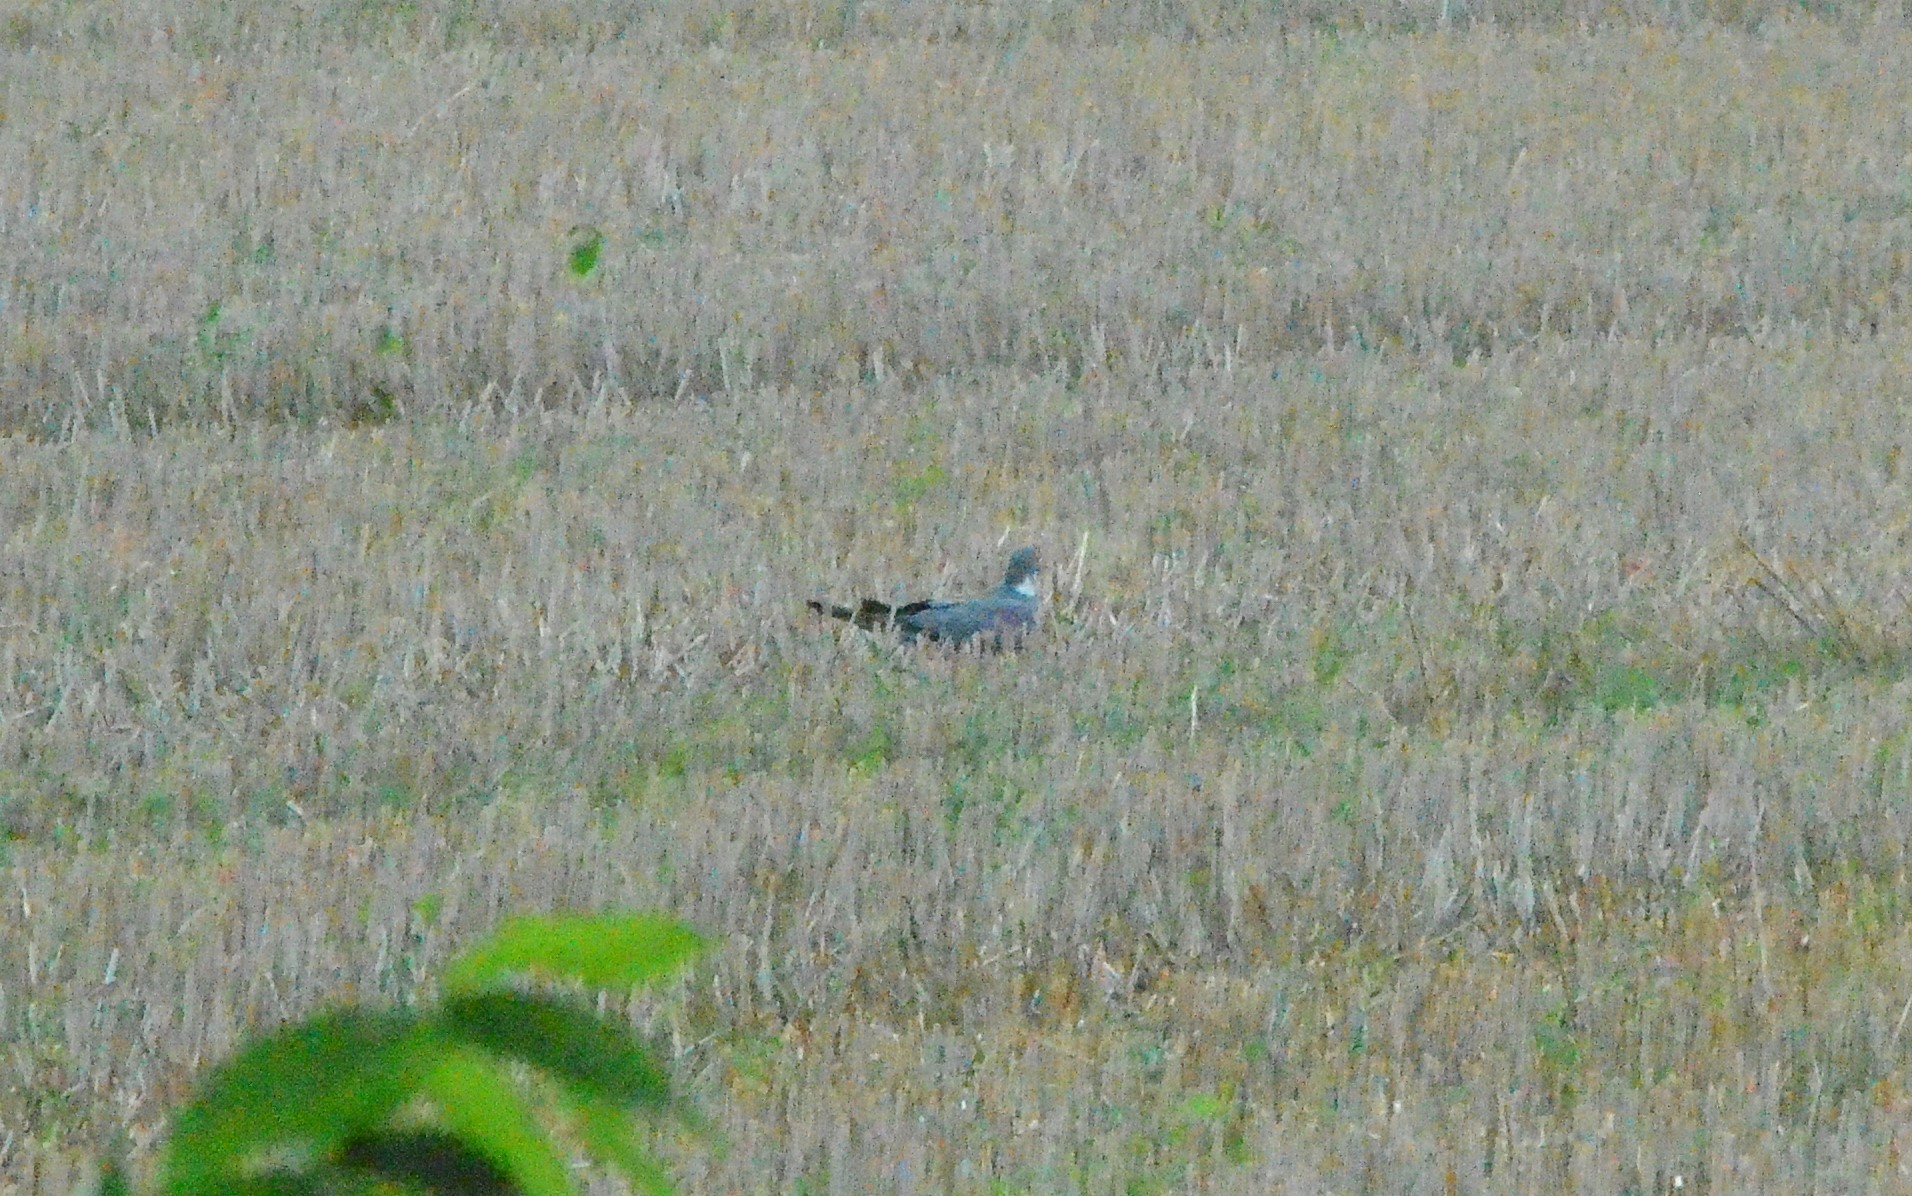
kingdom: Animalia
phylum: Chordata
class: Aves
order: Columbiformes
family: Columbidae
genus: Columba
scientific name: Columba palumbus
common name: Common wood pigeon
